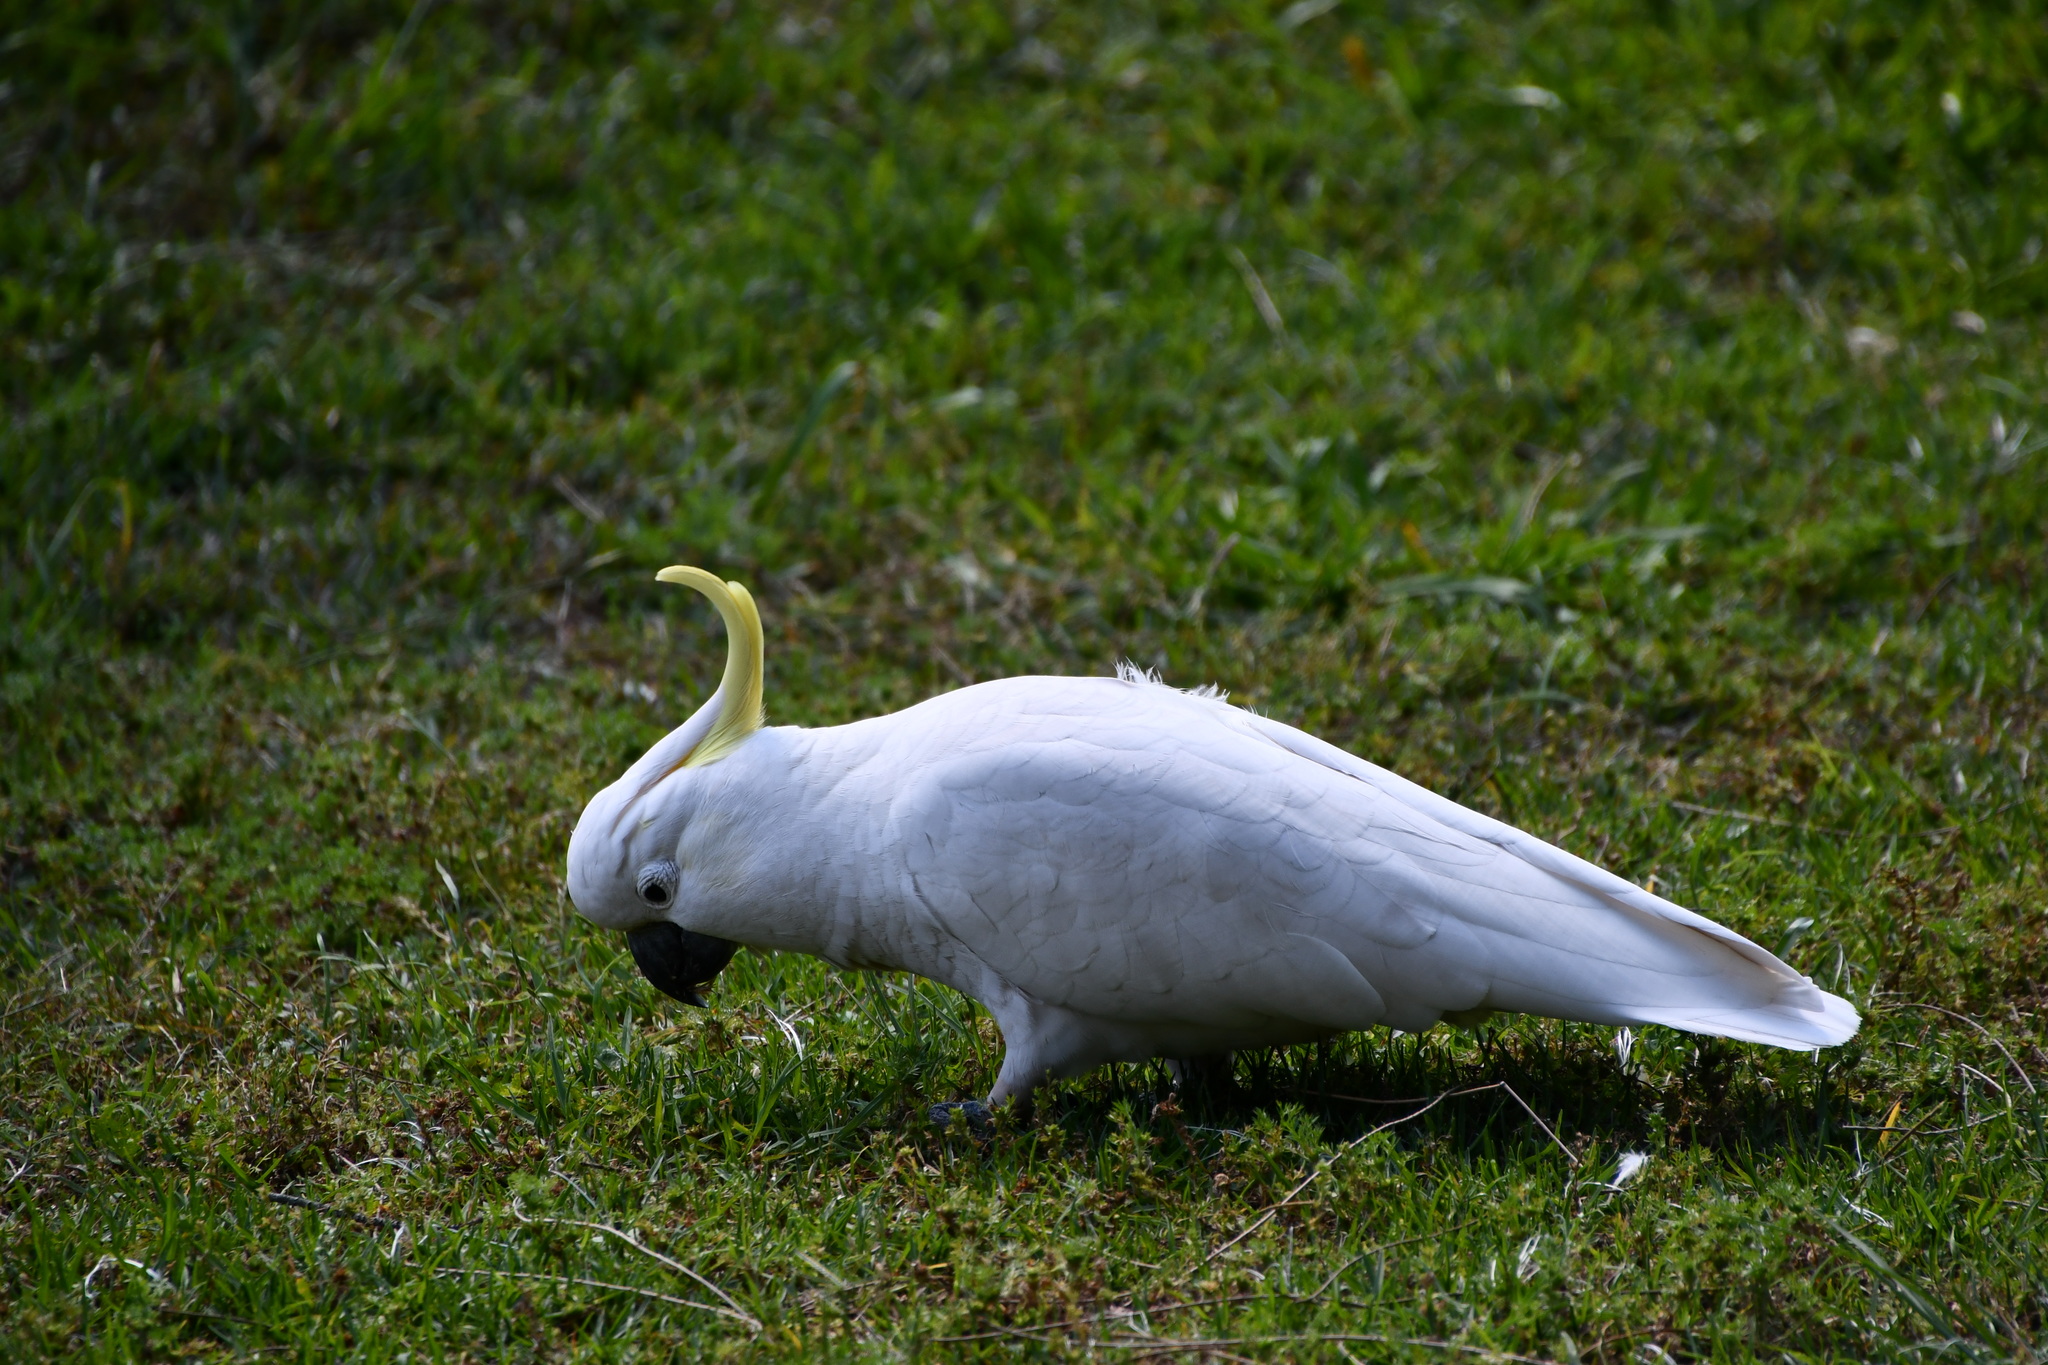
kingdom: Animalia
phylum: Chordata
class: Aves
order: Psittaciformes
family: Psittacidae
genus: Cacatua
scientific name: Cacatua galerita
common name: Sulphur-crested cockatoo
